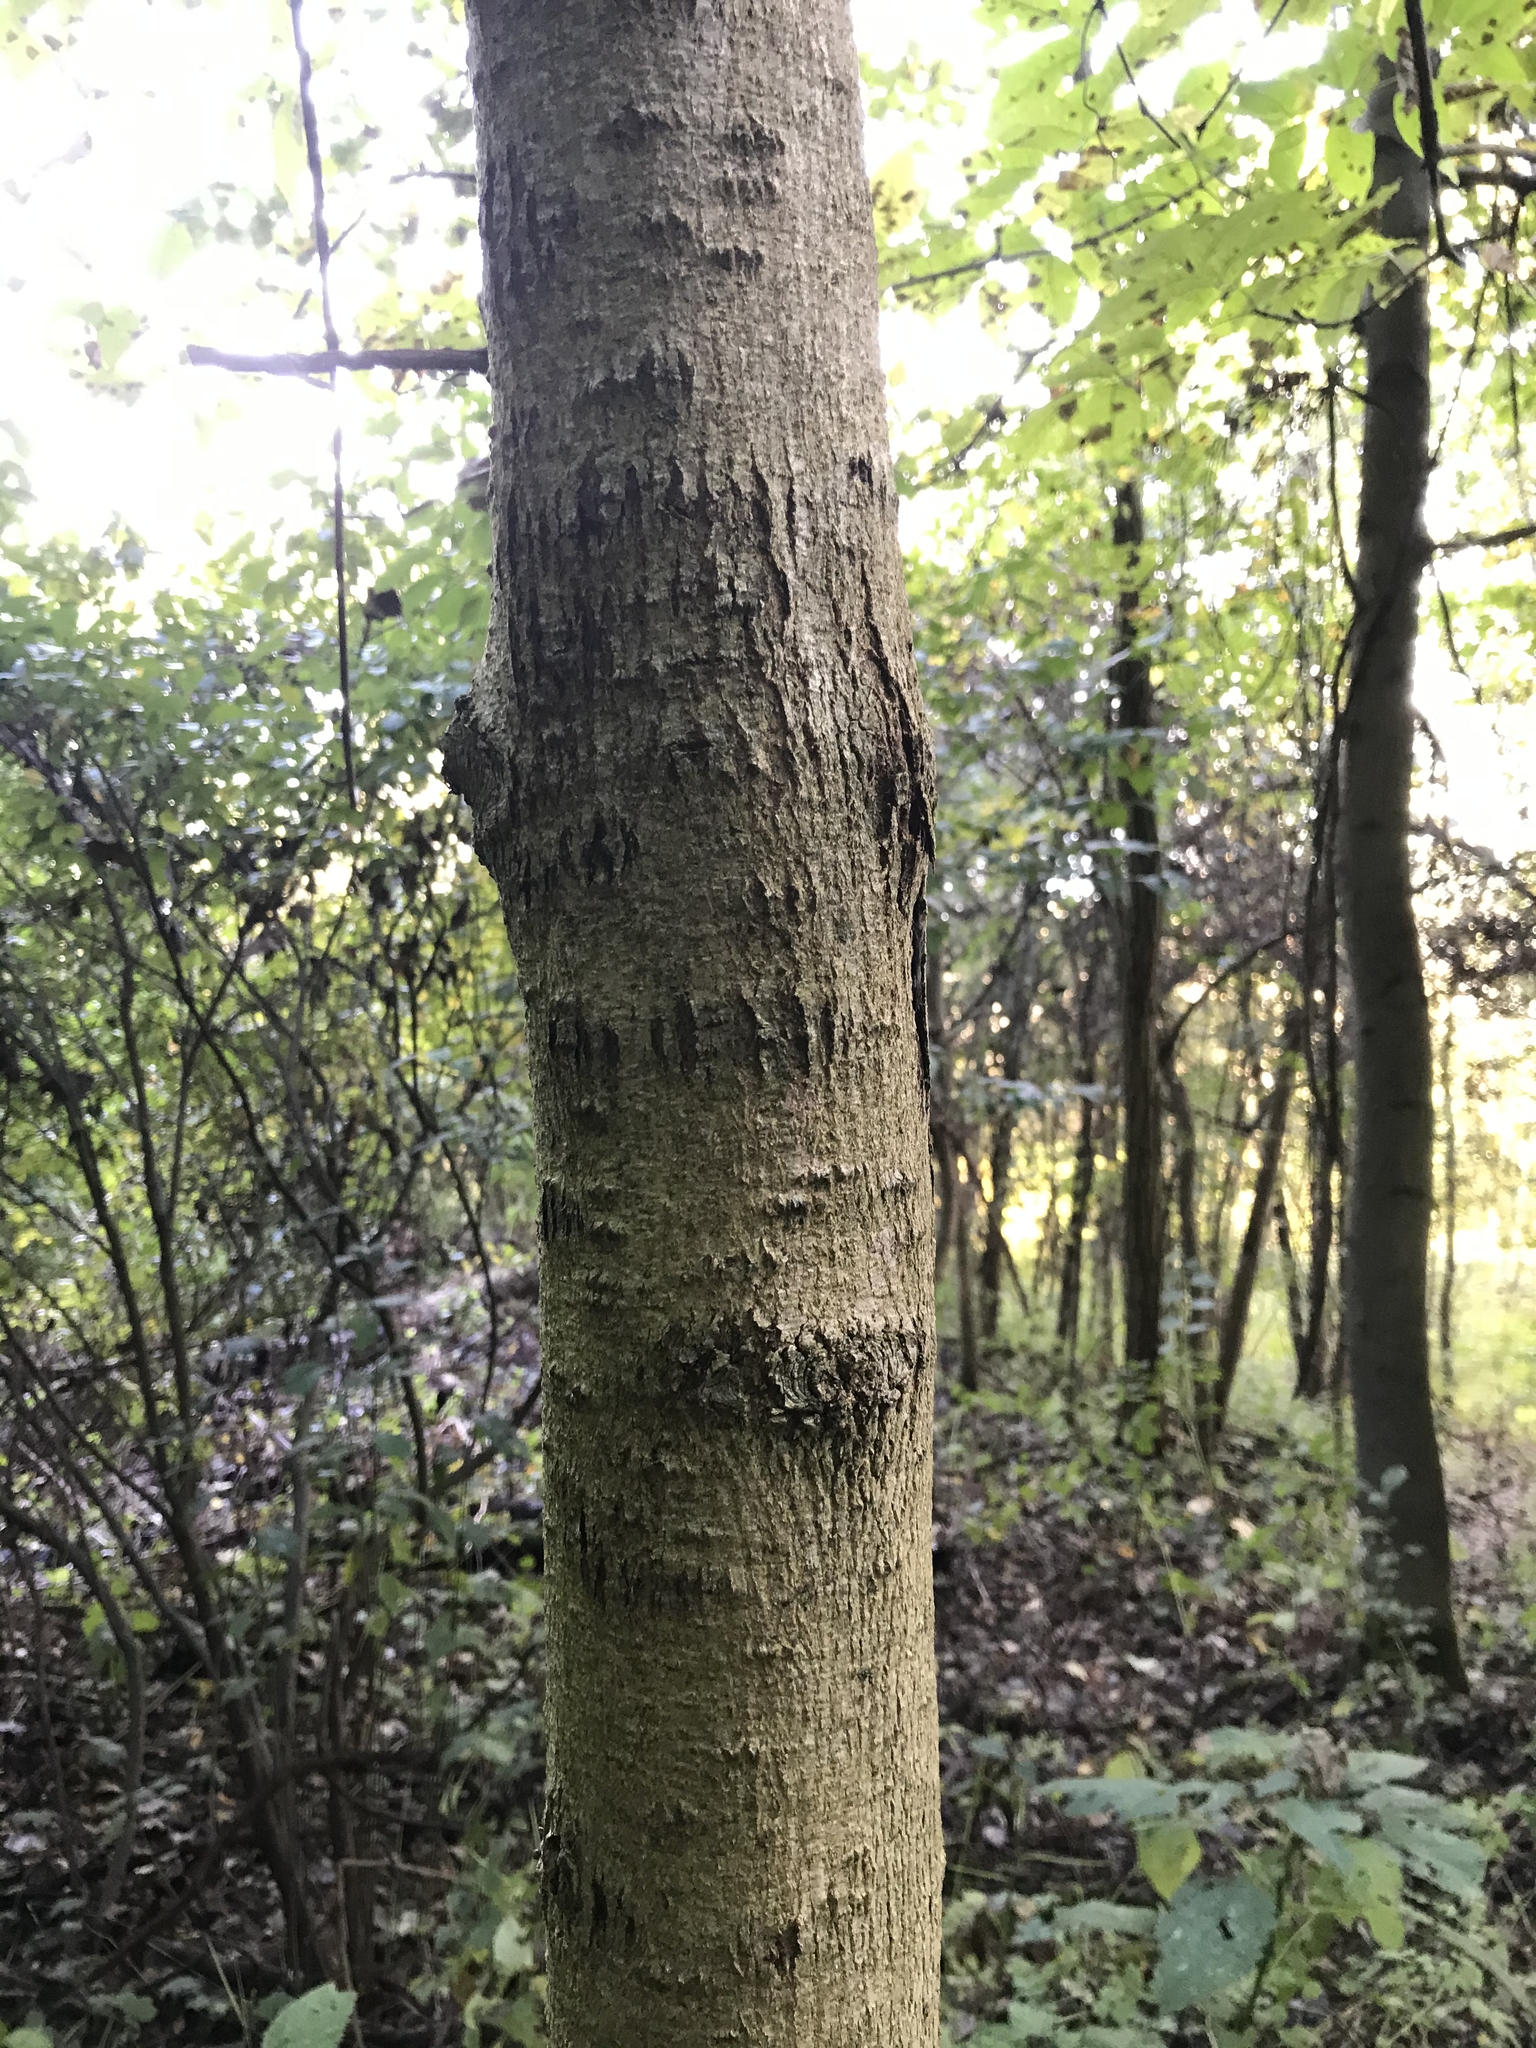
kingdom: Plantae
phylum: Tracheophyta
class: Magnoliopsida
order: Lamiales
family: Oleaceae
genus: Fraxinus
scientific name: Fraxinus pennsylvanica
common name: Green ash
